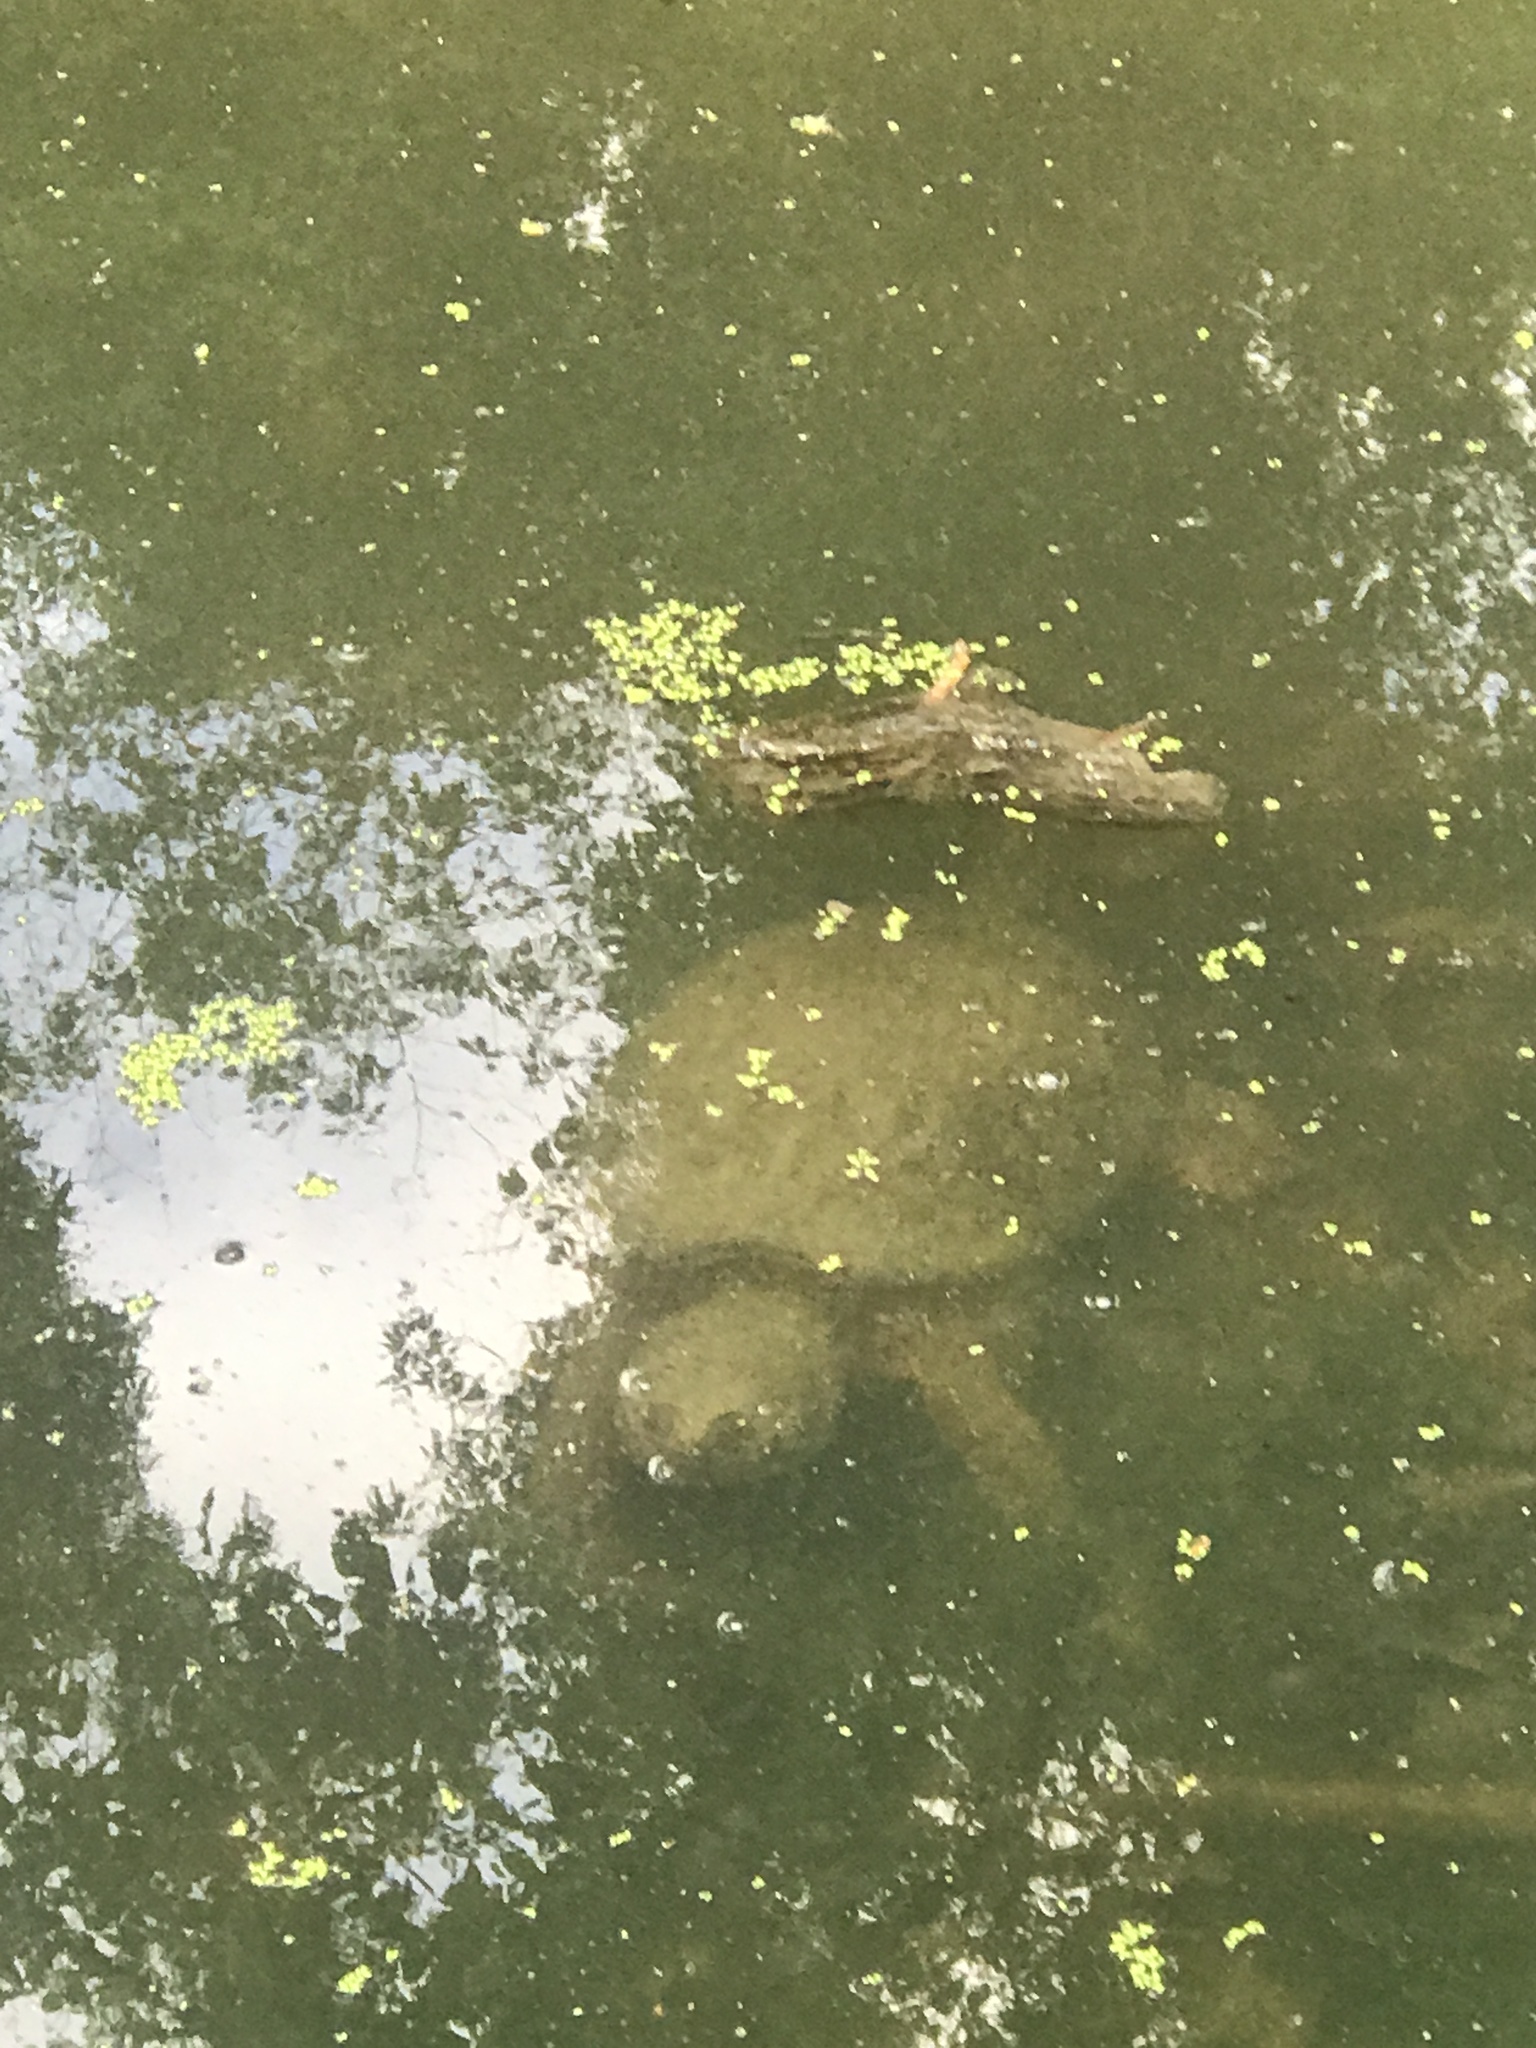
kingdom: Animalia
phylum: Chordata
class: Testudines
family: Chelydridae
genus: Chelydra
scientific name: Chelydra serpentina
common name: Common snapping turtle
